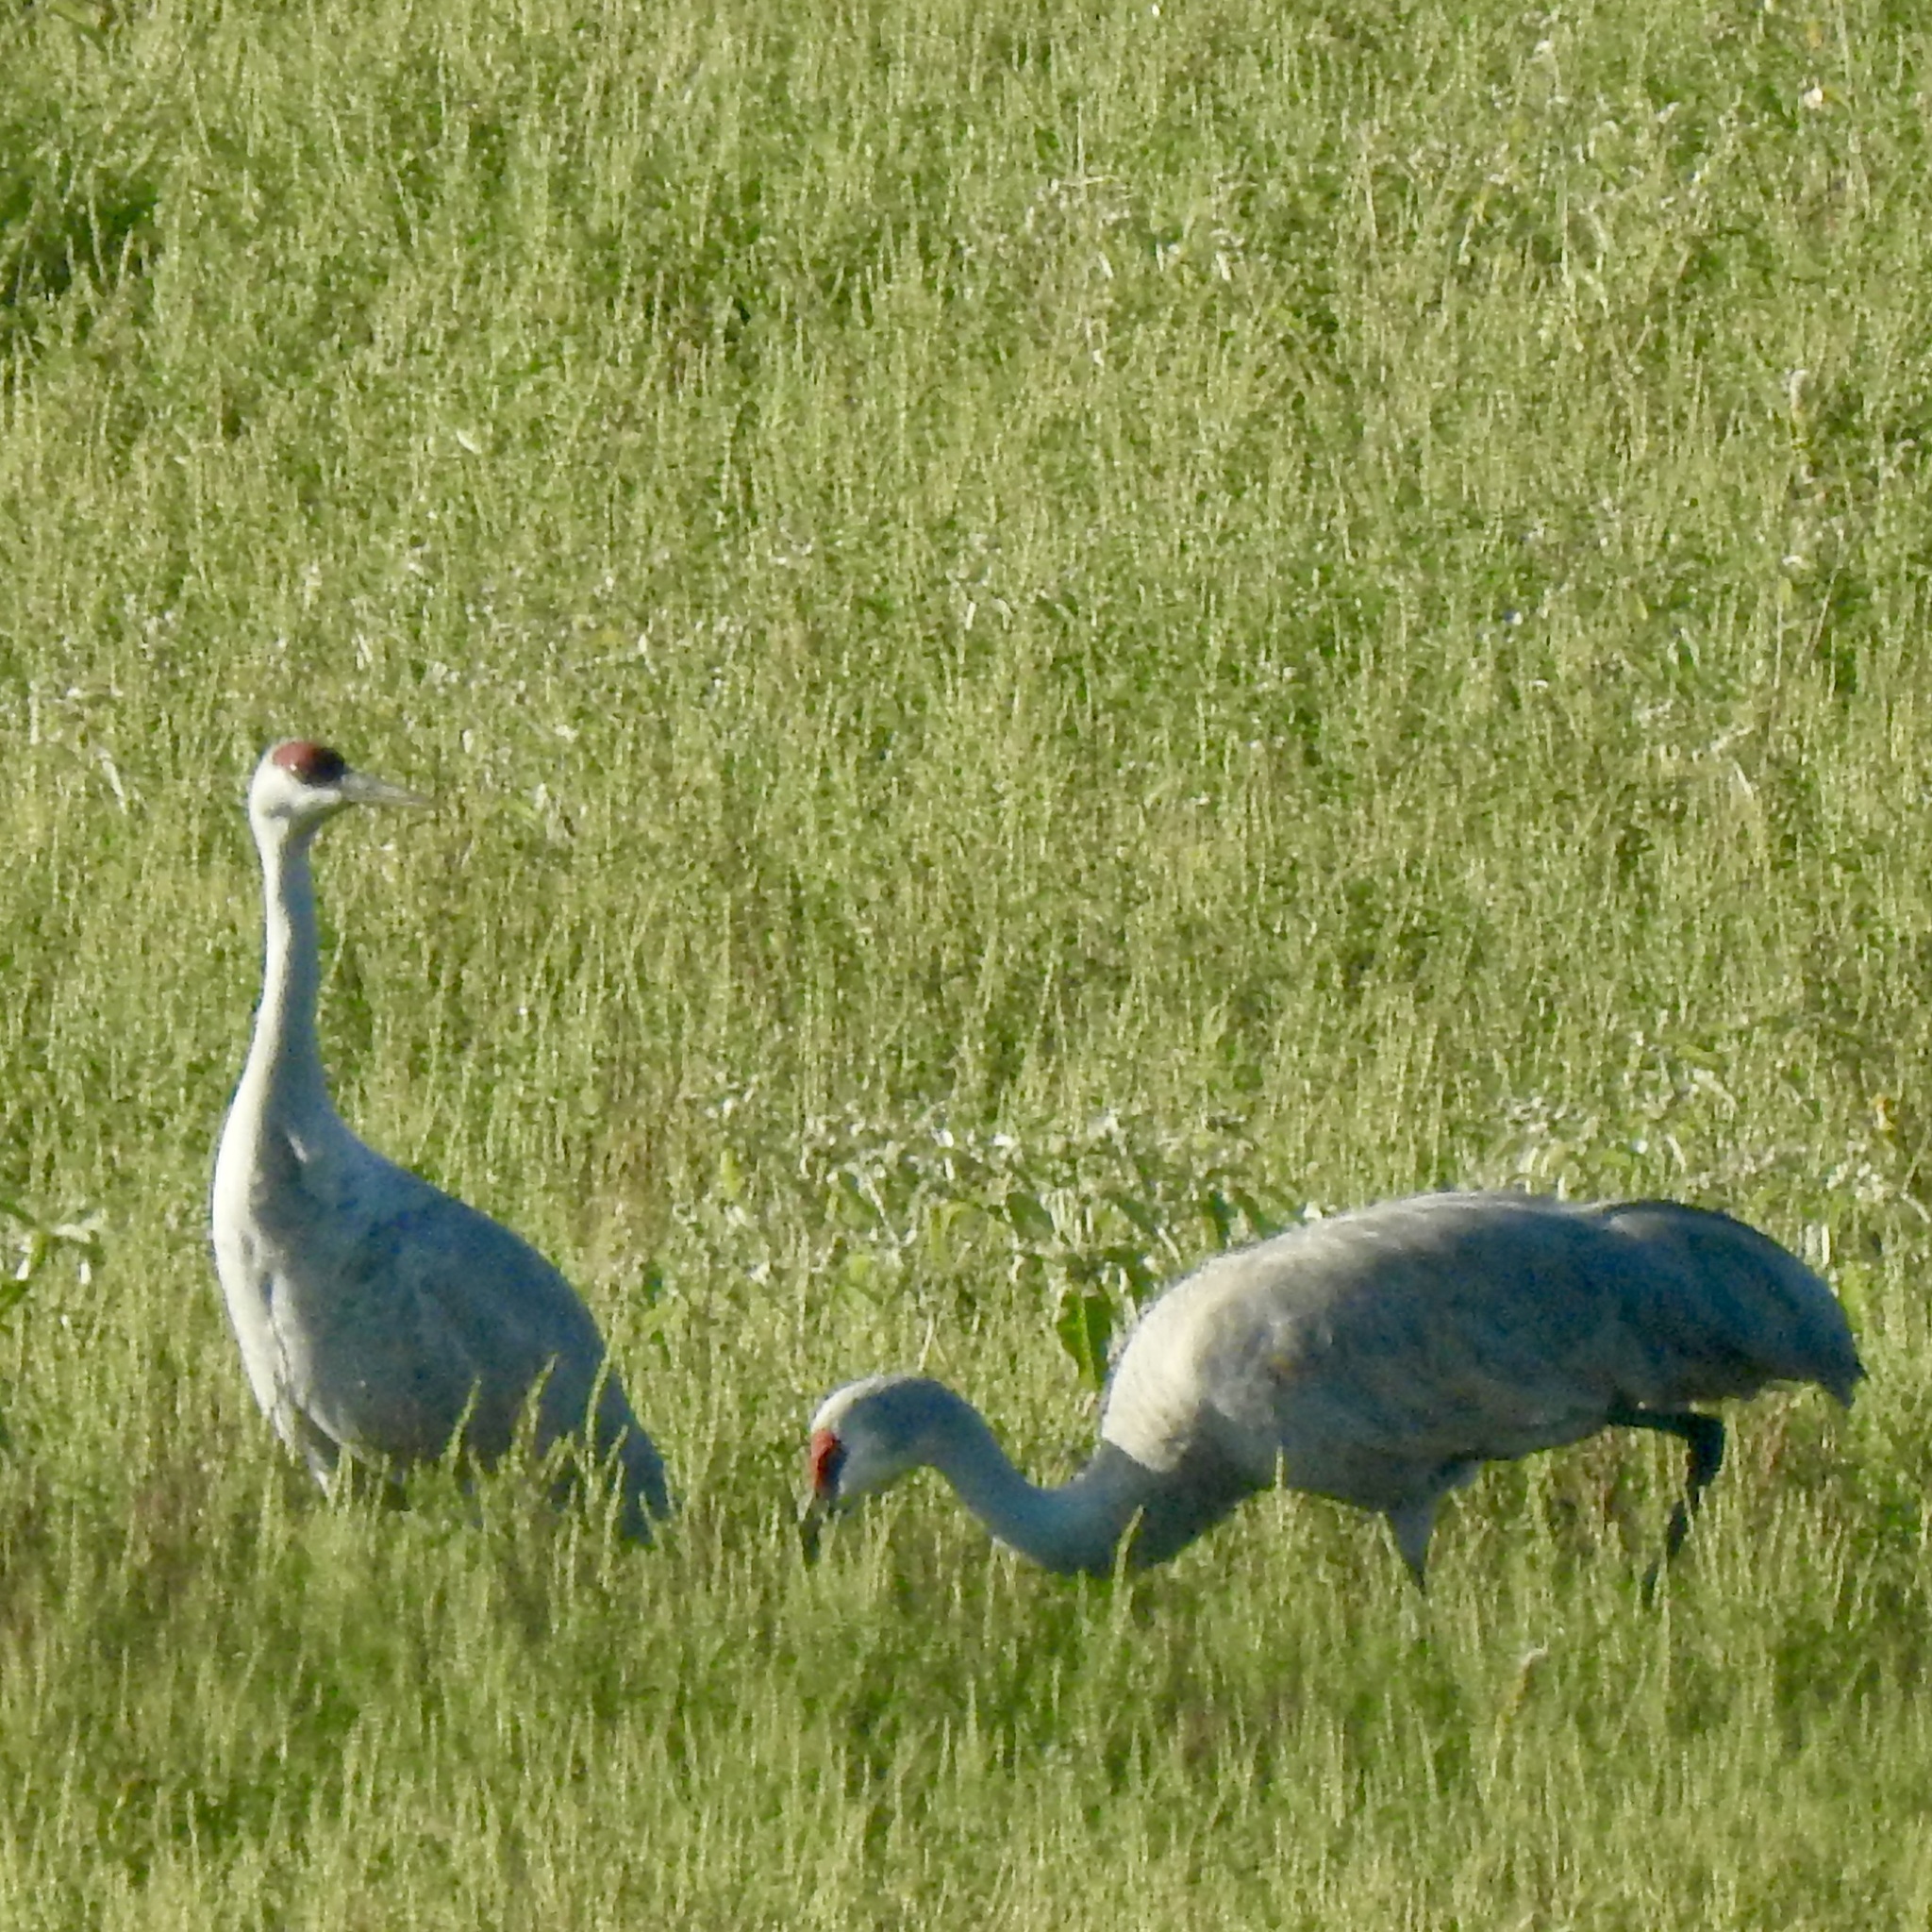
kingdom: Animalia
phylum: Chordata
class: Aves
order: Gruiformes
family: Gruidae
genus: Grus
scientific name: Grus canadensis
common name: Sandhill crane
